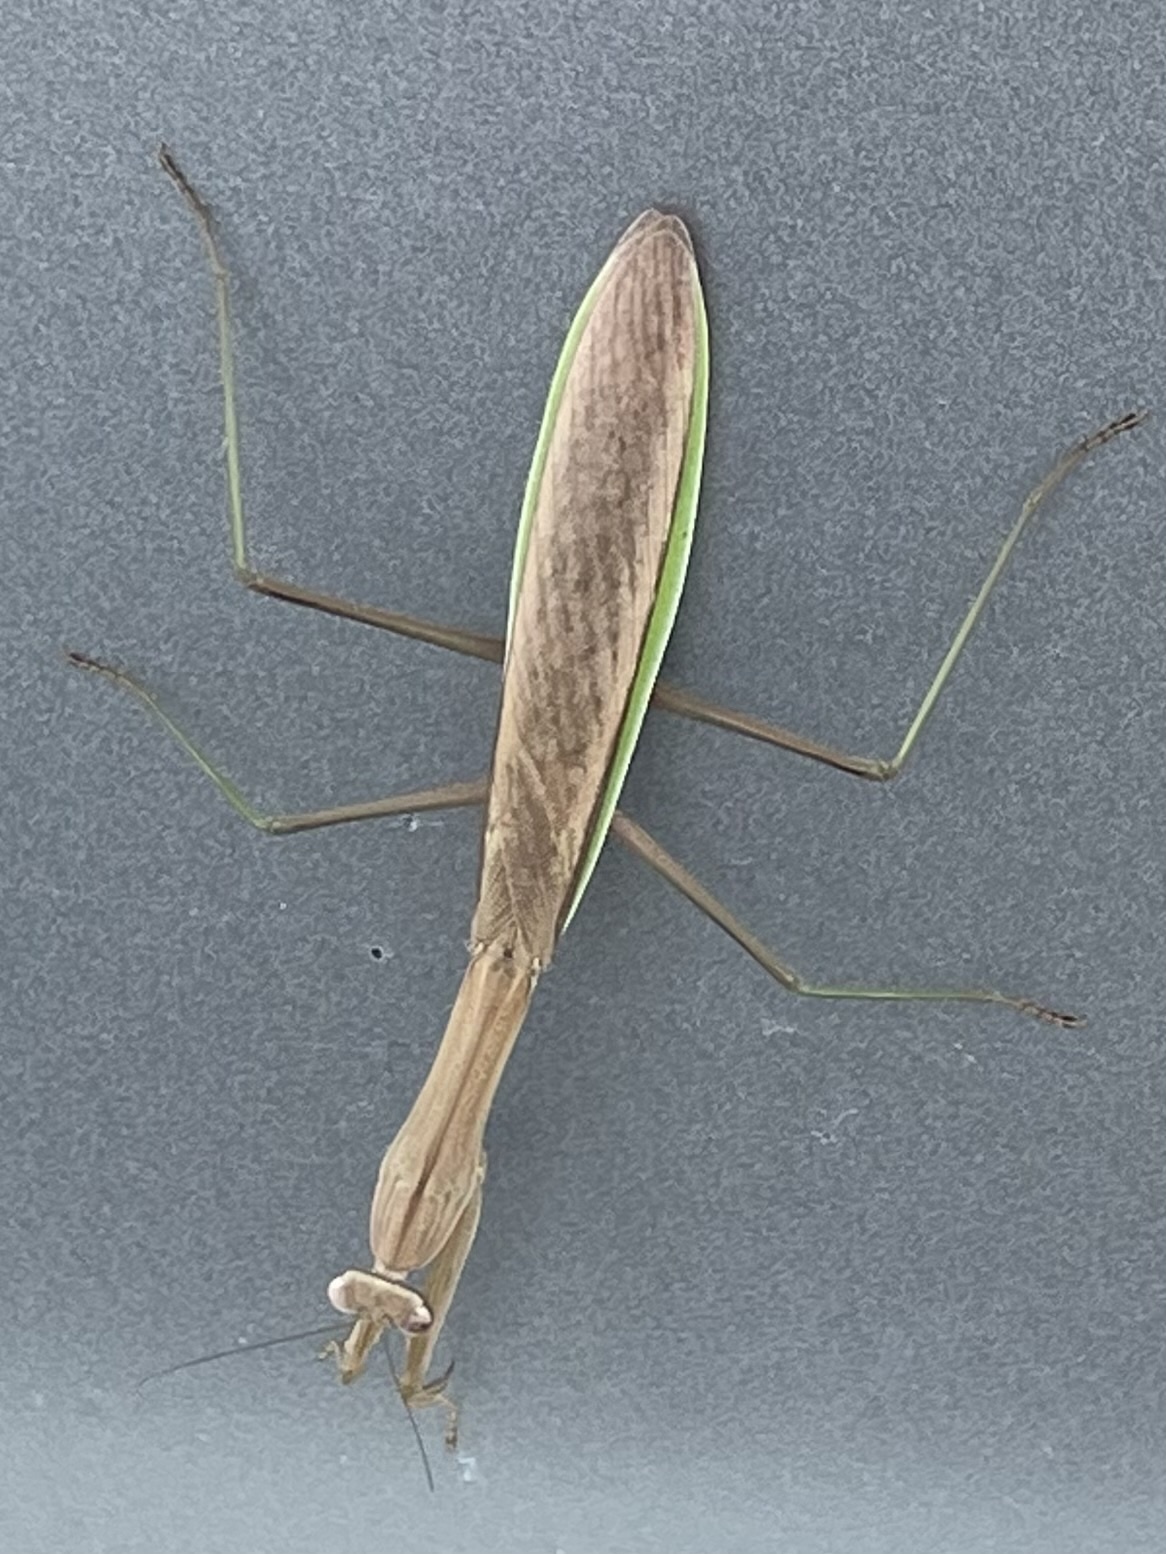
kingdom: Animalia
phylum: Arthropoda
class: Insecta
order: Mantodea
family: Mantidae
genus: Tenodera
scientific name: Tenodera sinensis
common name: Chinese mantis
